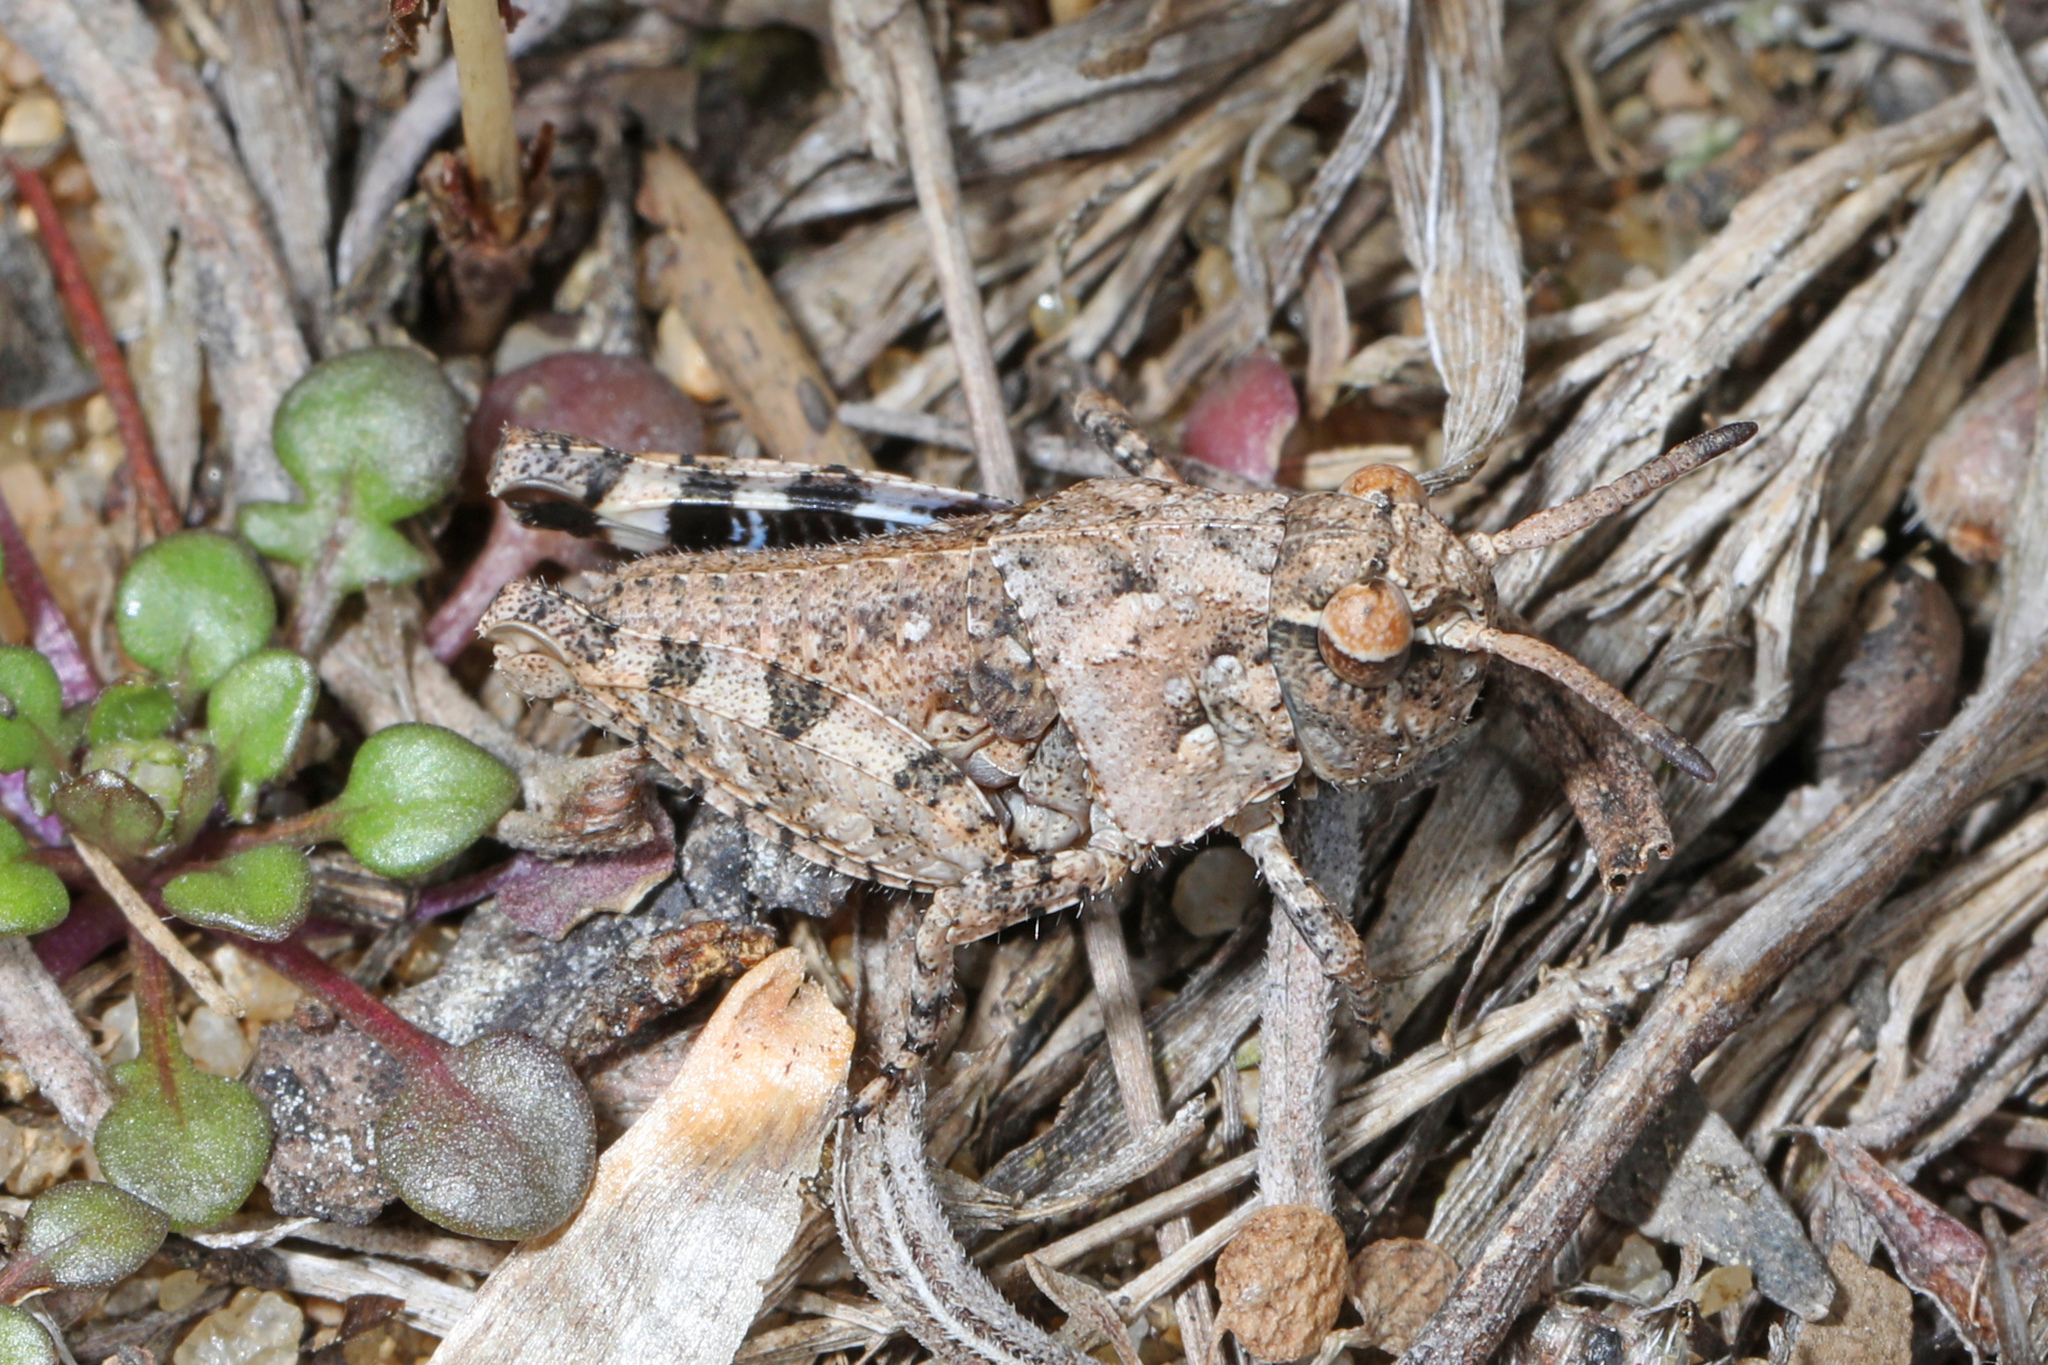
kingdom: Animalia
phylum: Arthropoda
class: Insecta
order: Orthoptera
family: Acrididae
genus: Pardalophora
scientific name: Pardalophora phoenicoptera
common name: Orange-winged grasshopper
